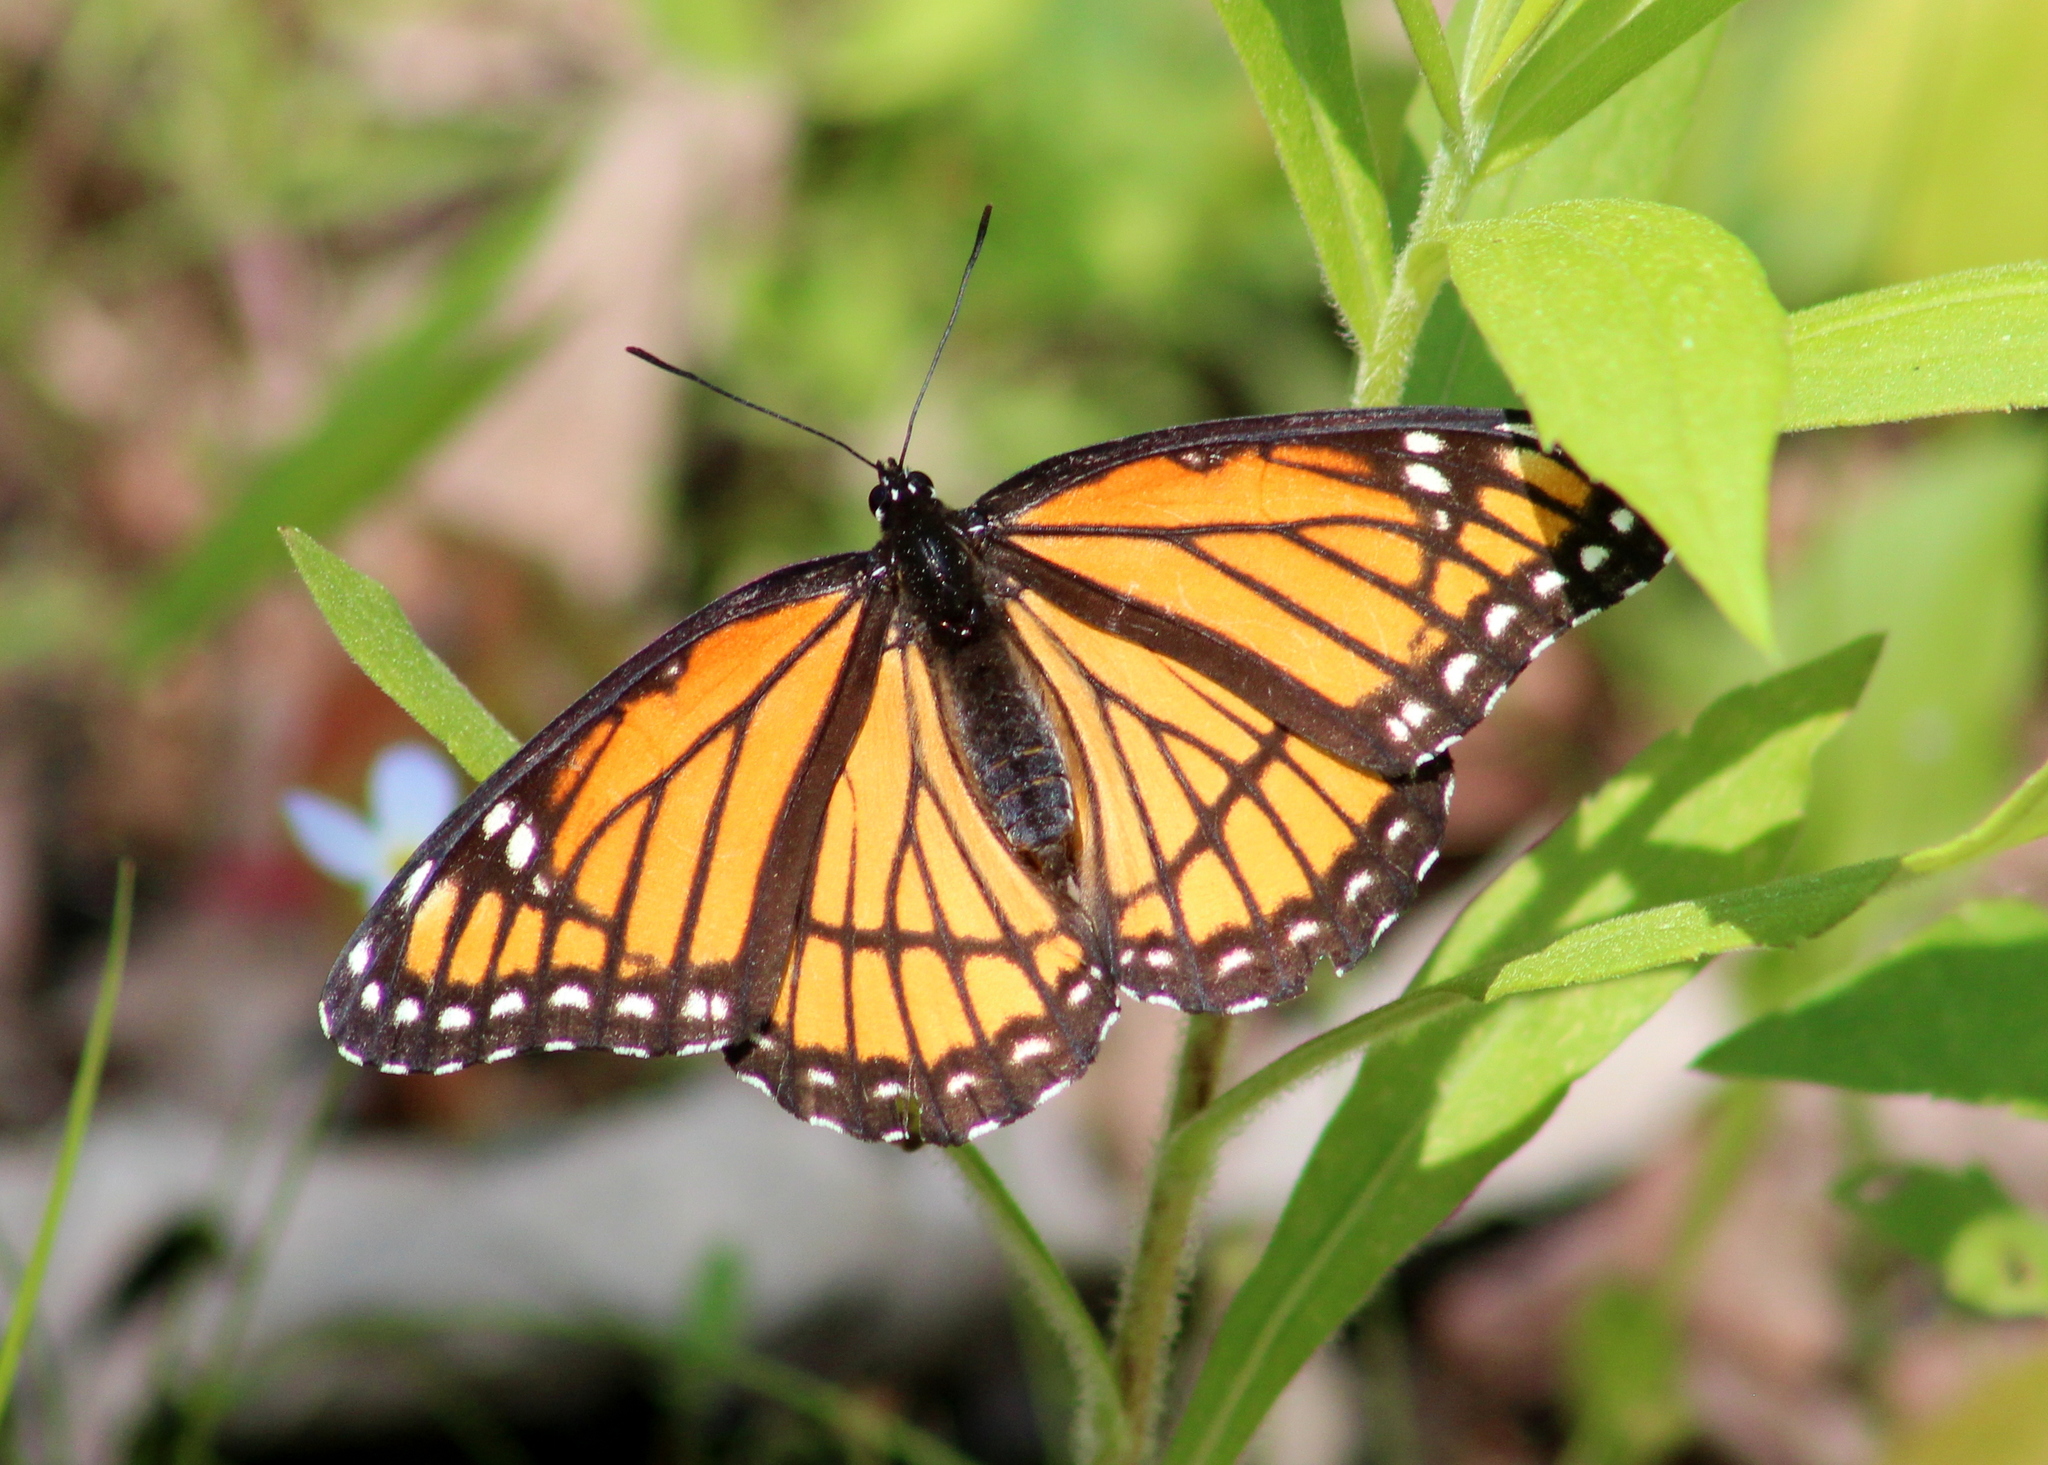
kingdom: Animalia
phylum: Arthropoda
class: Insecta
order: Lepidoptera
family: Nymphalidae
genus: Limenitis
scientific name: Limenitis archippus
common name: Viceroy
